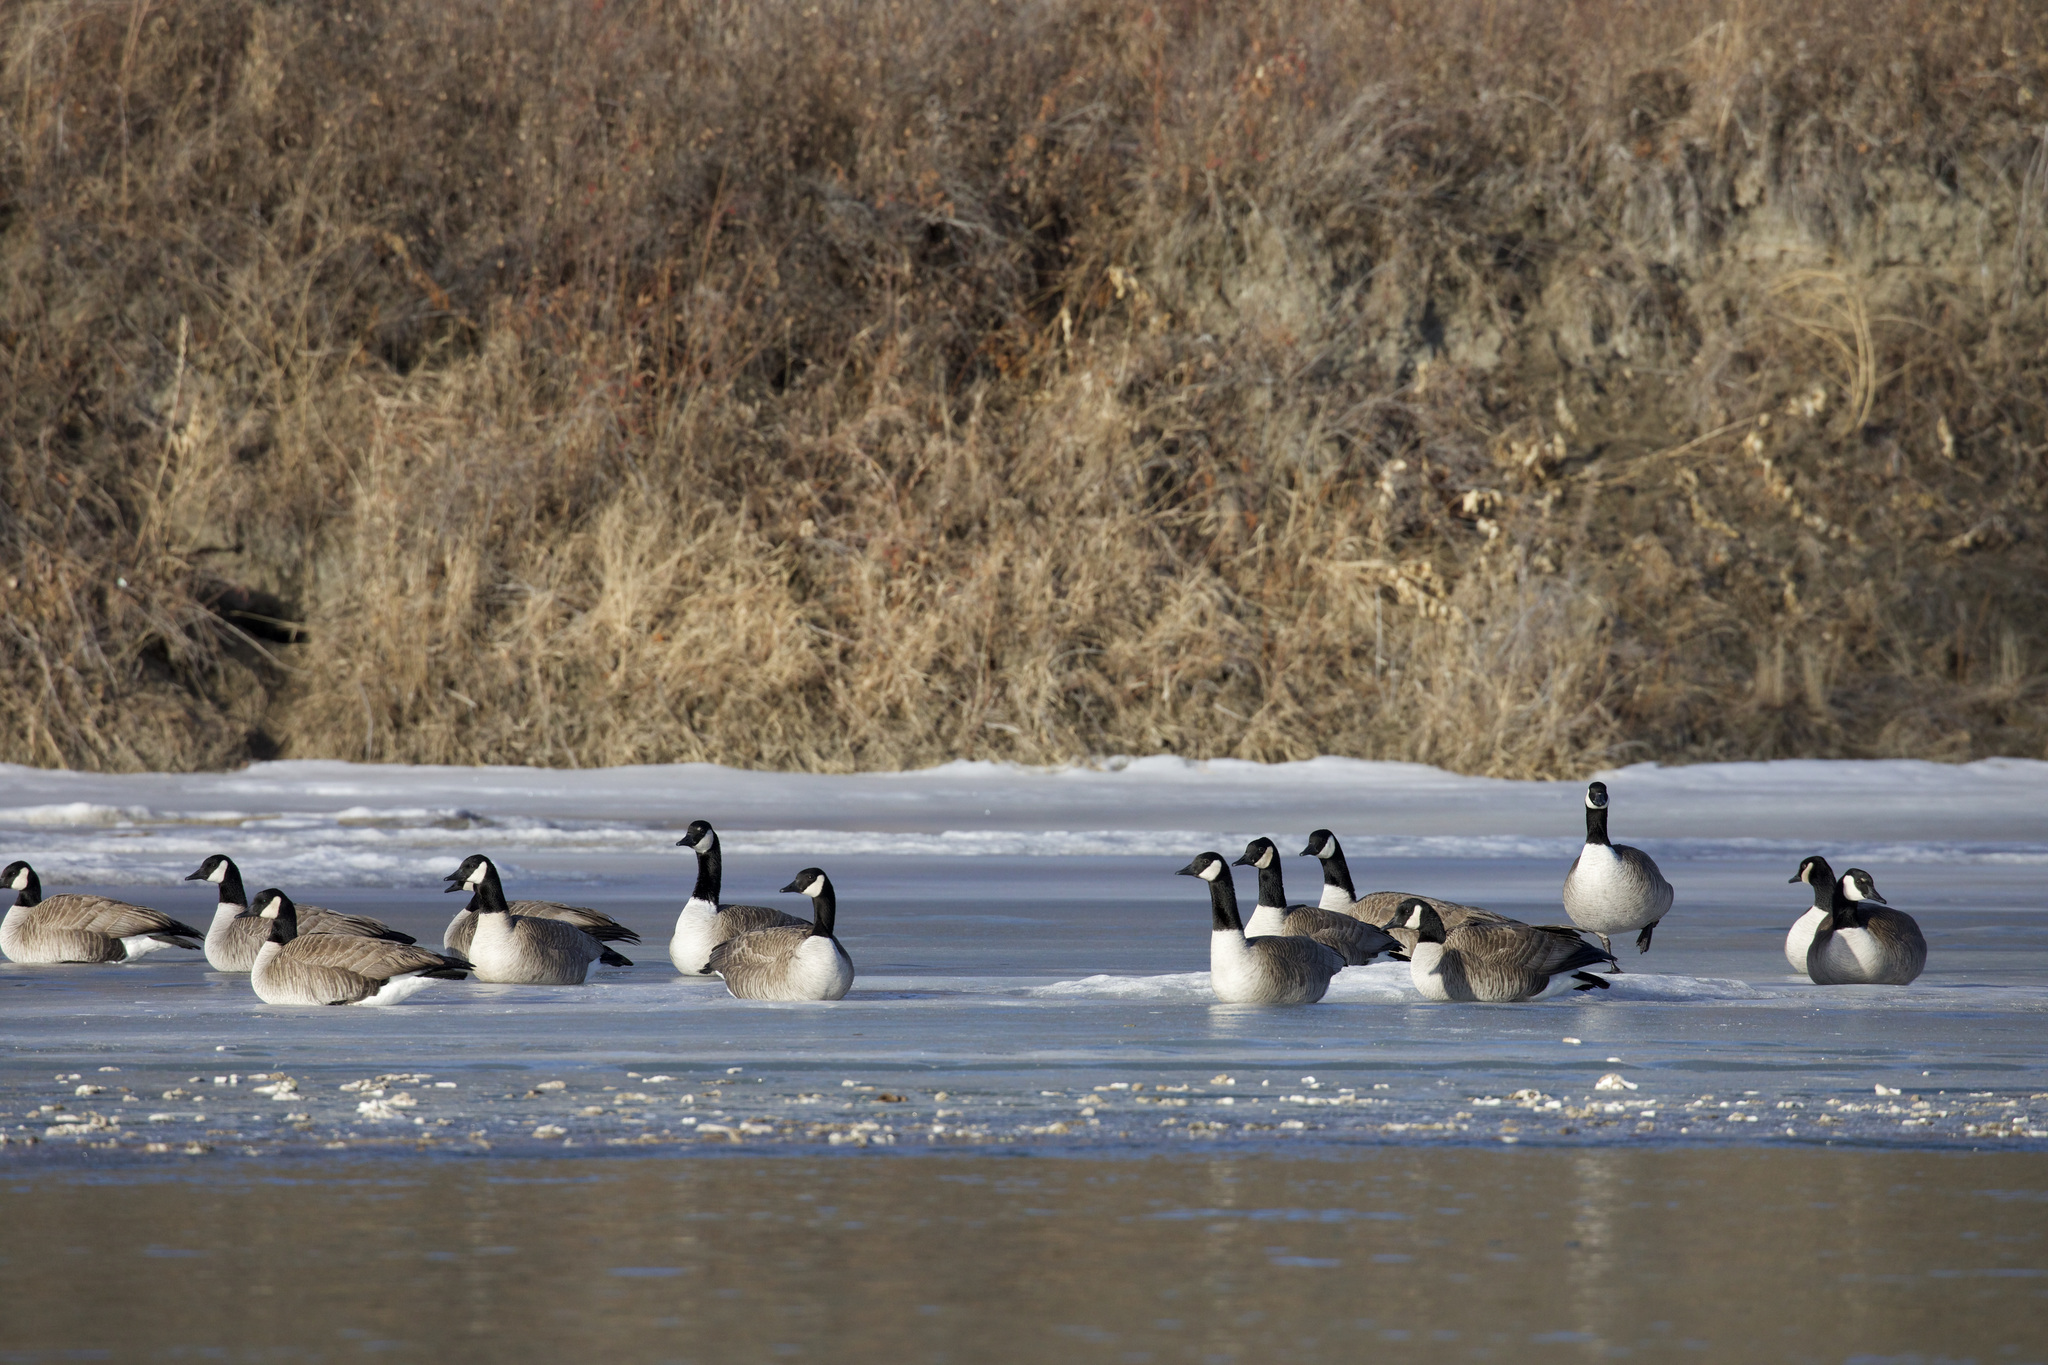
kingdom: Animalia
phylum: Chordata
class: Aves
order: Anseriformes
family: Anatidae
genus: Branta
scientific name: Branta canadensis
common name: Canada goose
